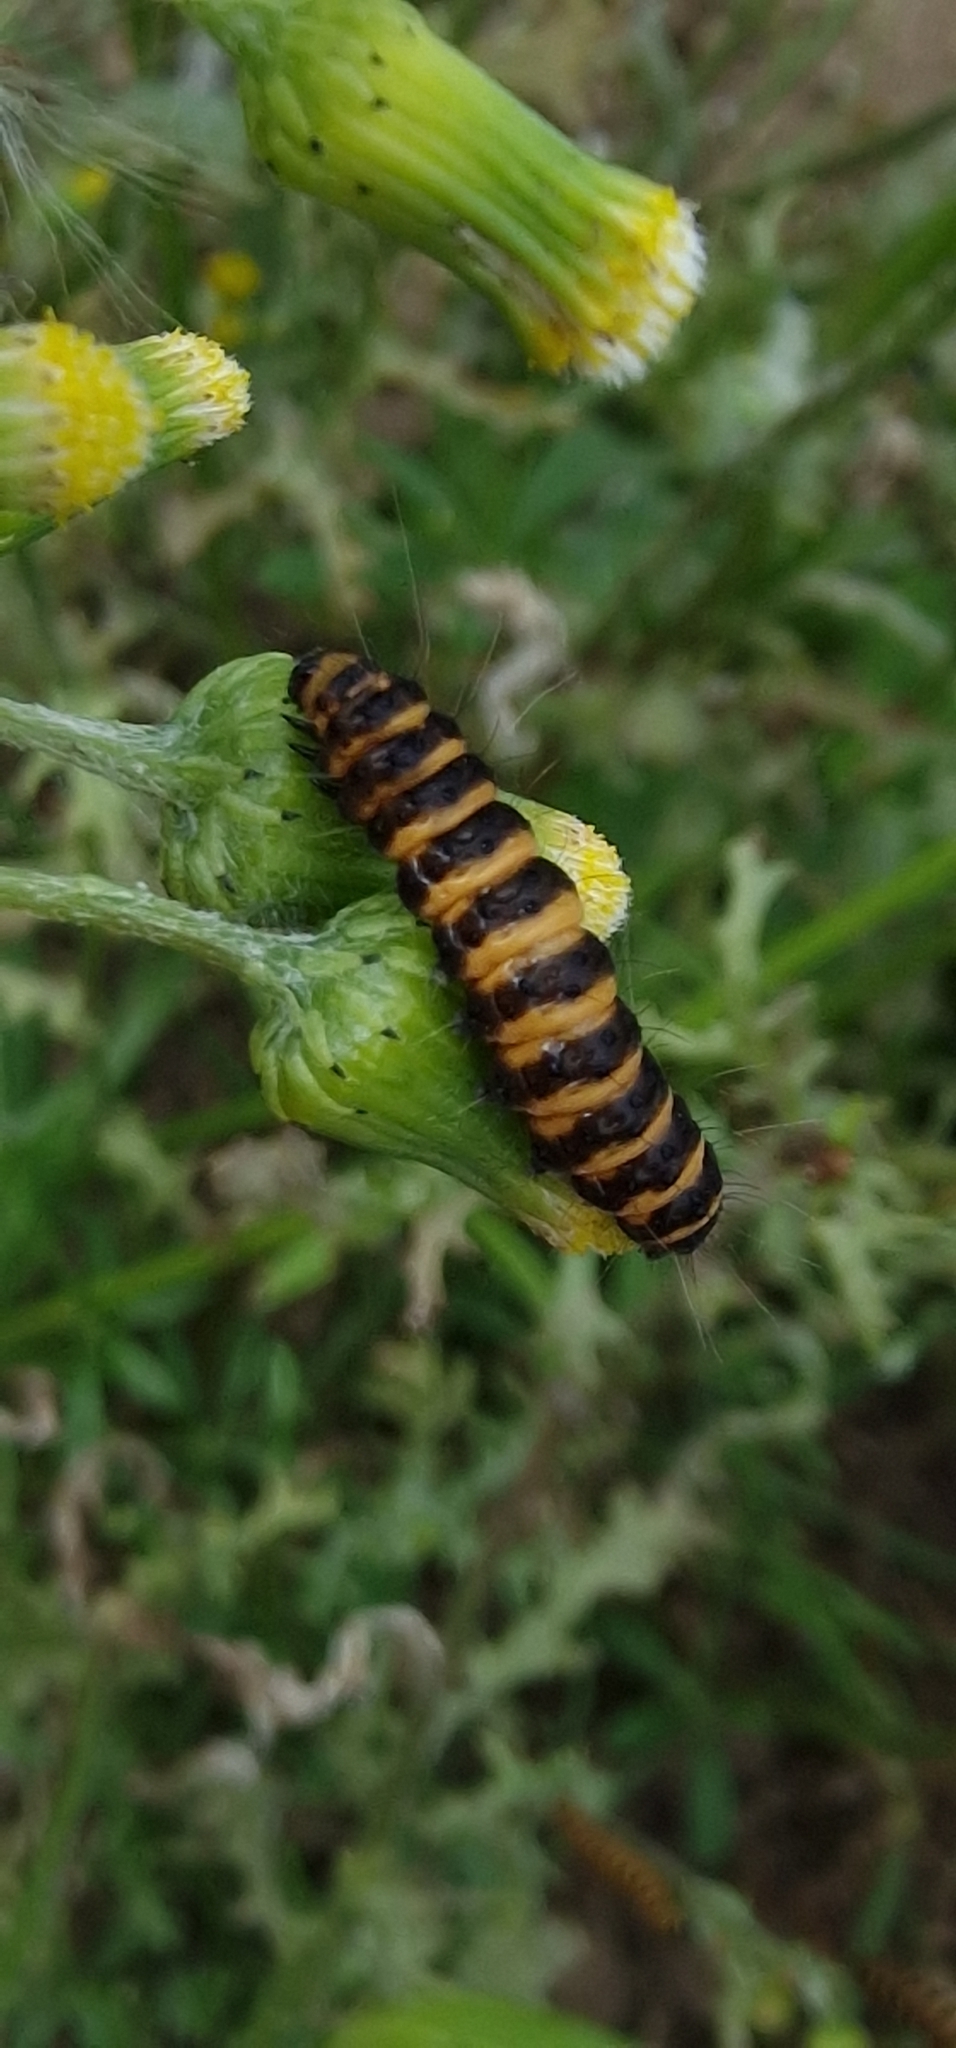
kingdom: Animalia
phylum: Arthropoda
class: Insecta
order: Lepidoptera
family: Erebidae
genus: Tyria
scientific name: Tyria jacobaeae
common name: Cinnabar
